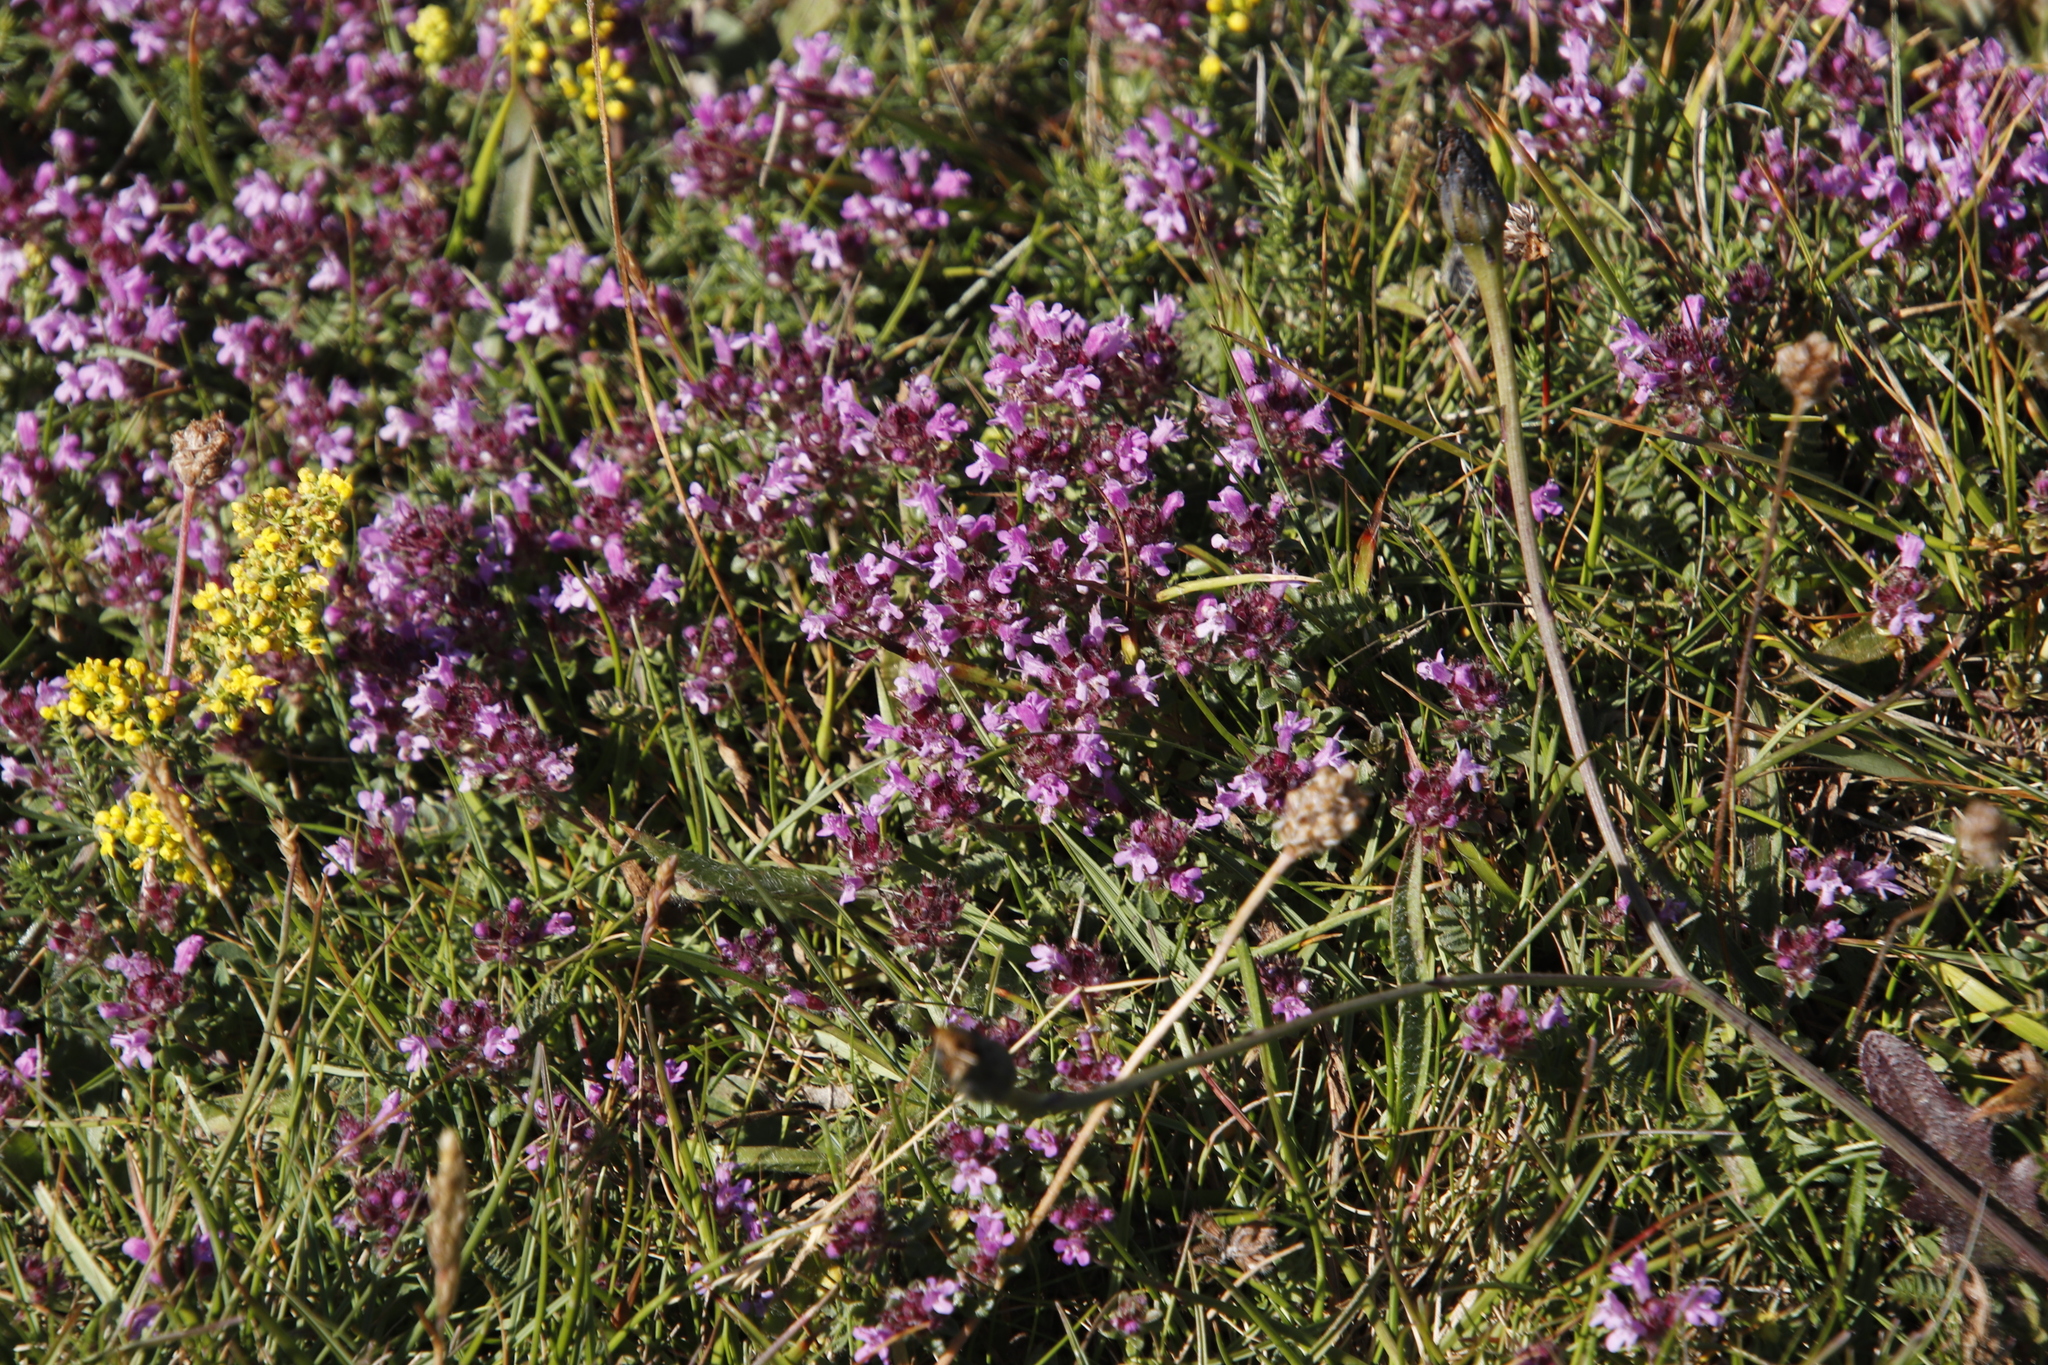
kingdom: Plantae
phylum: Tracheophyta
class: Magnoliopsida
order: Lamiales
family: Lamiaceae
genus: Thymus
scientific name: Thymus praecox
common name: Wild thyme
